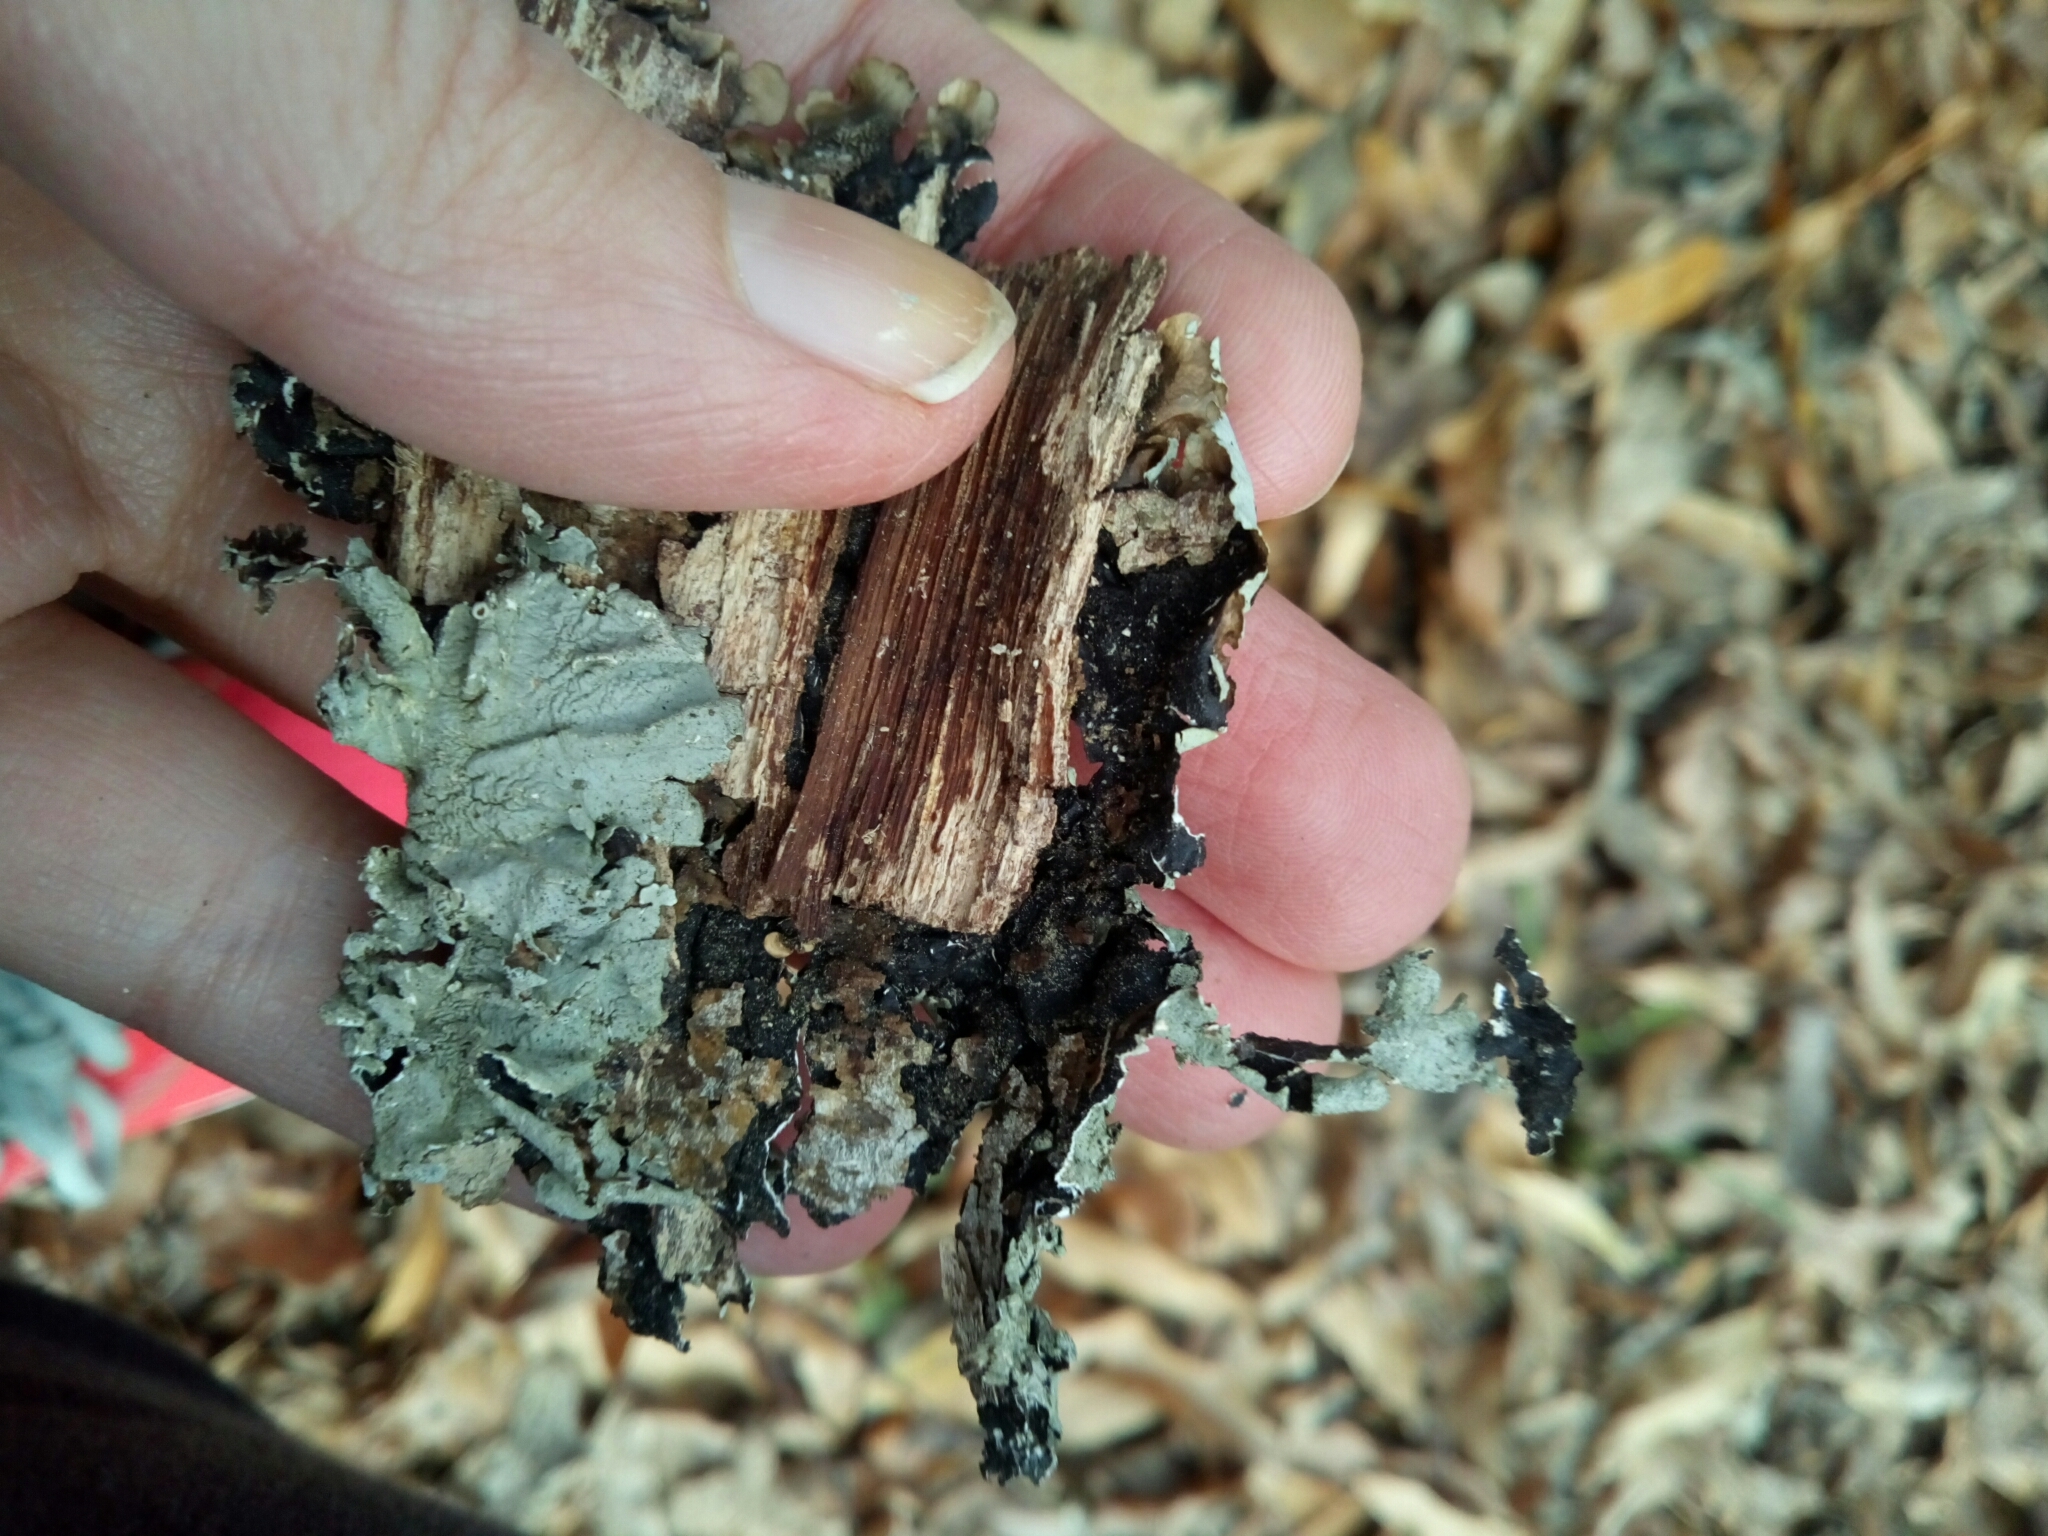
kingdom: Fungi
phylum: Ascomycota
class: Lecanoromycetes
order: Lecanorales
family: Parmeliaceae
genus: Flavoparmelia
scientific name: Flavoparmelia caperata
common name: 40-mile per hour lichen
